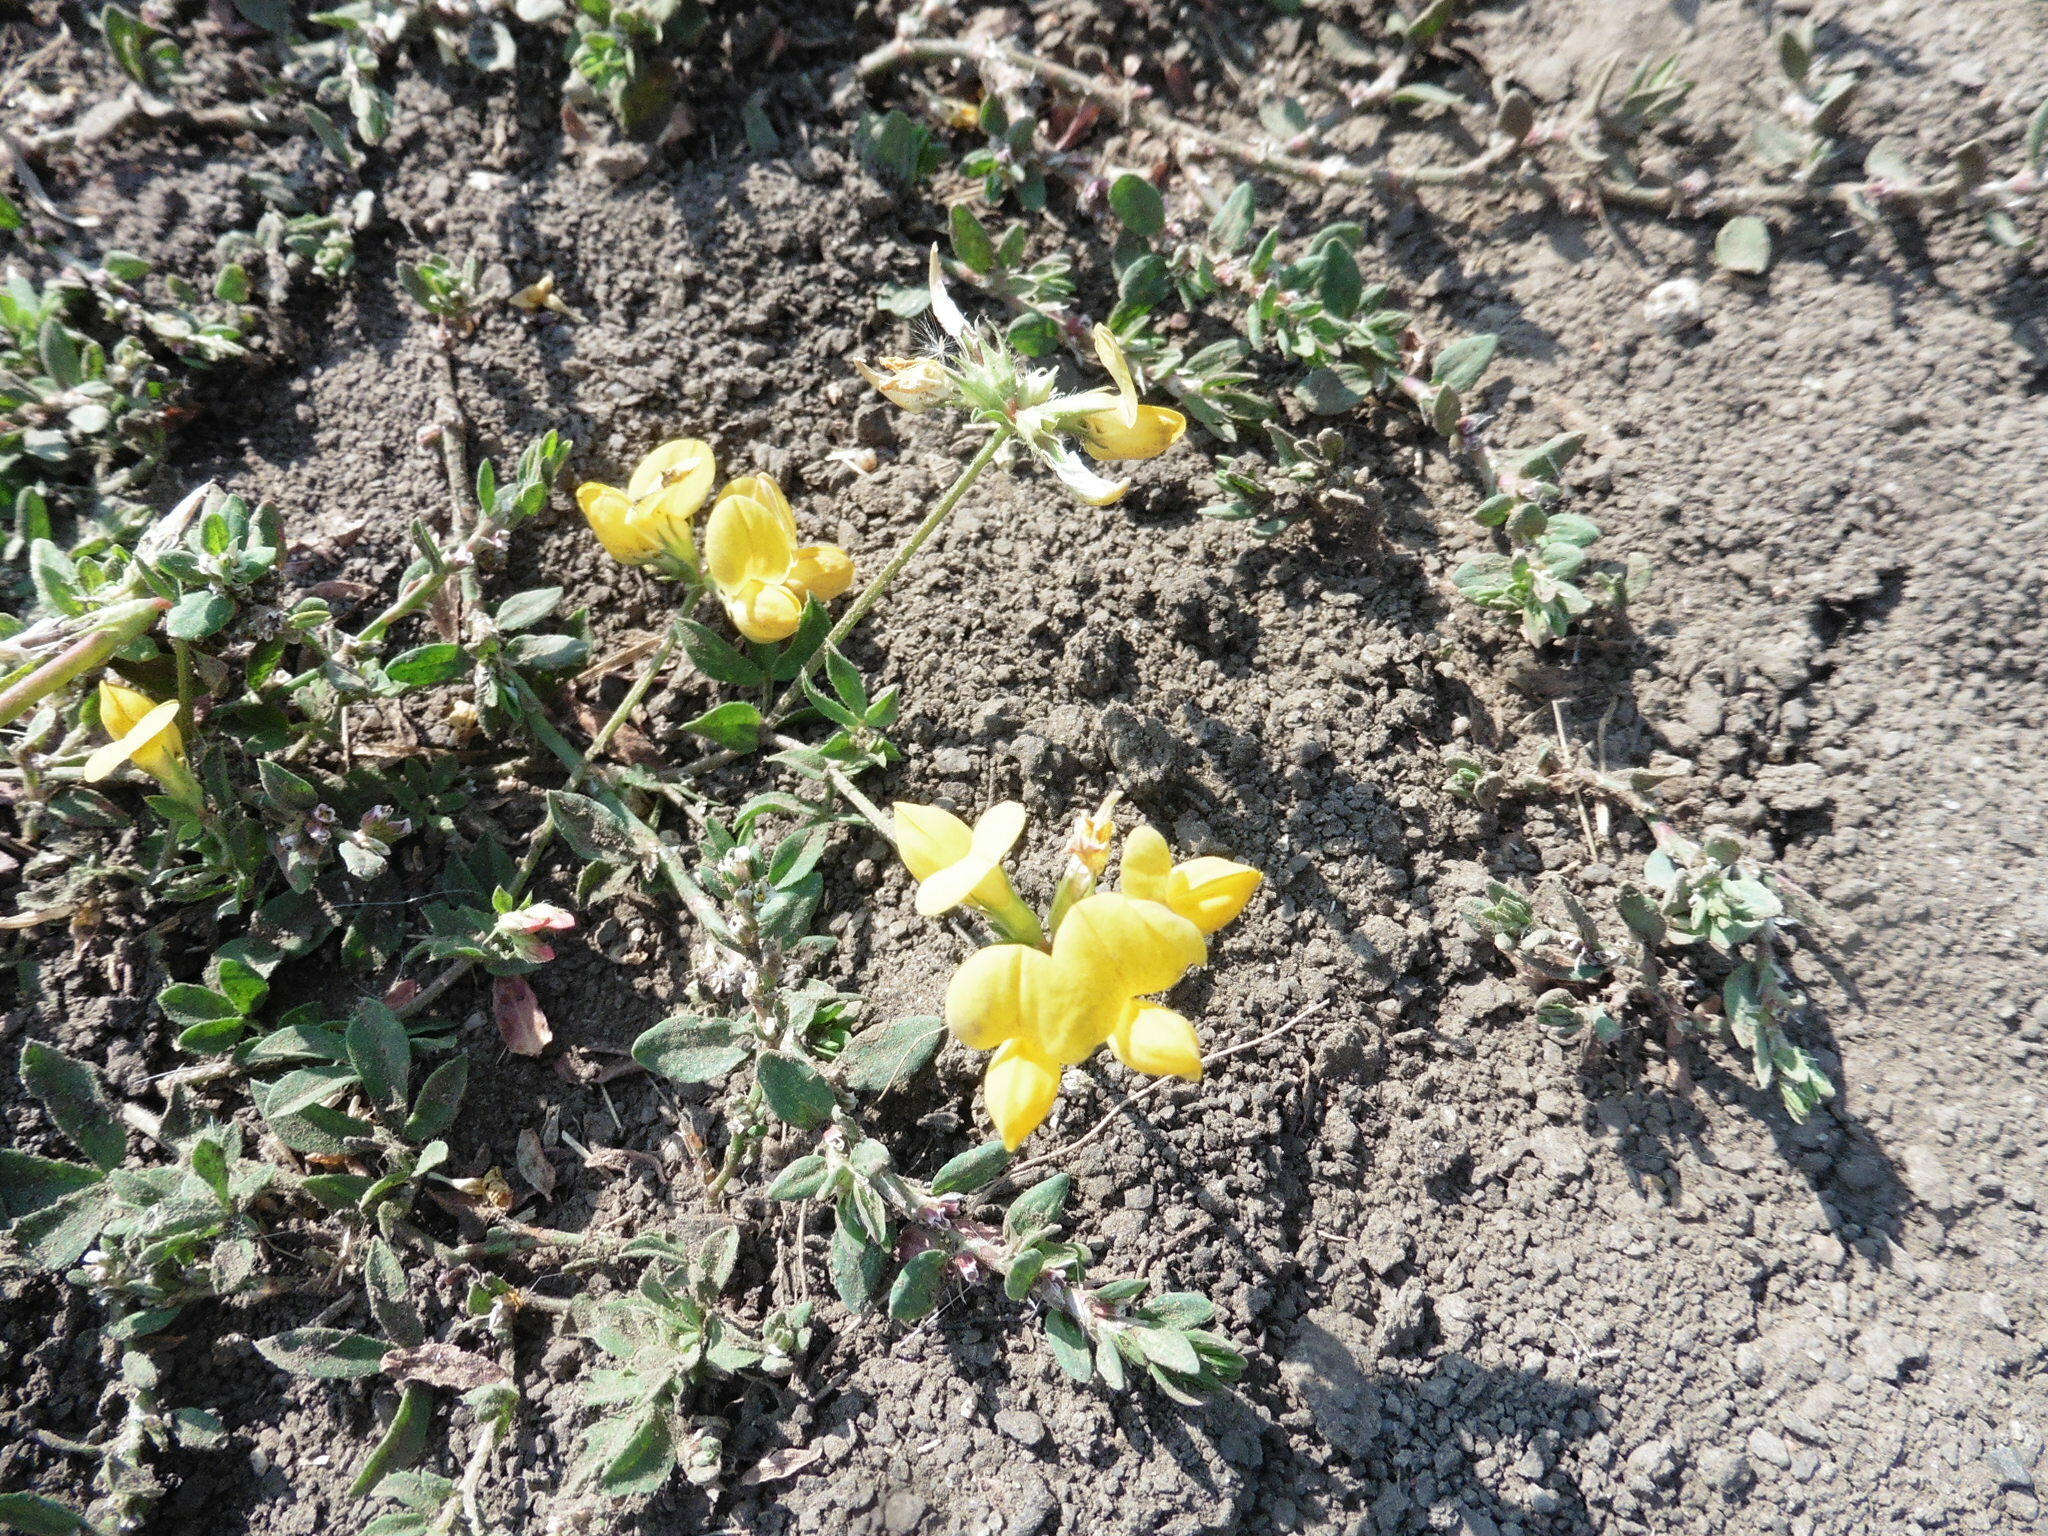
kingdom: Plantae
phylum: Tracheophyta
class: Magnoliopsida
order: Fabales
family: Fabaceae
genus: Lotus
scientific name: Lotus corniculatus
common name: Common bird's-foot-trefoil
